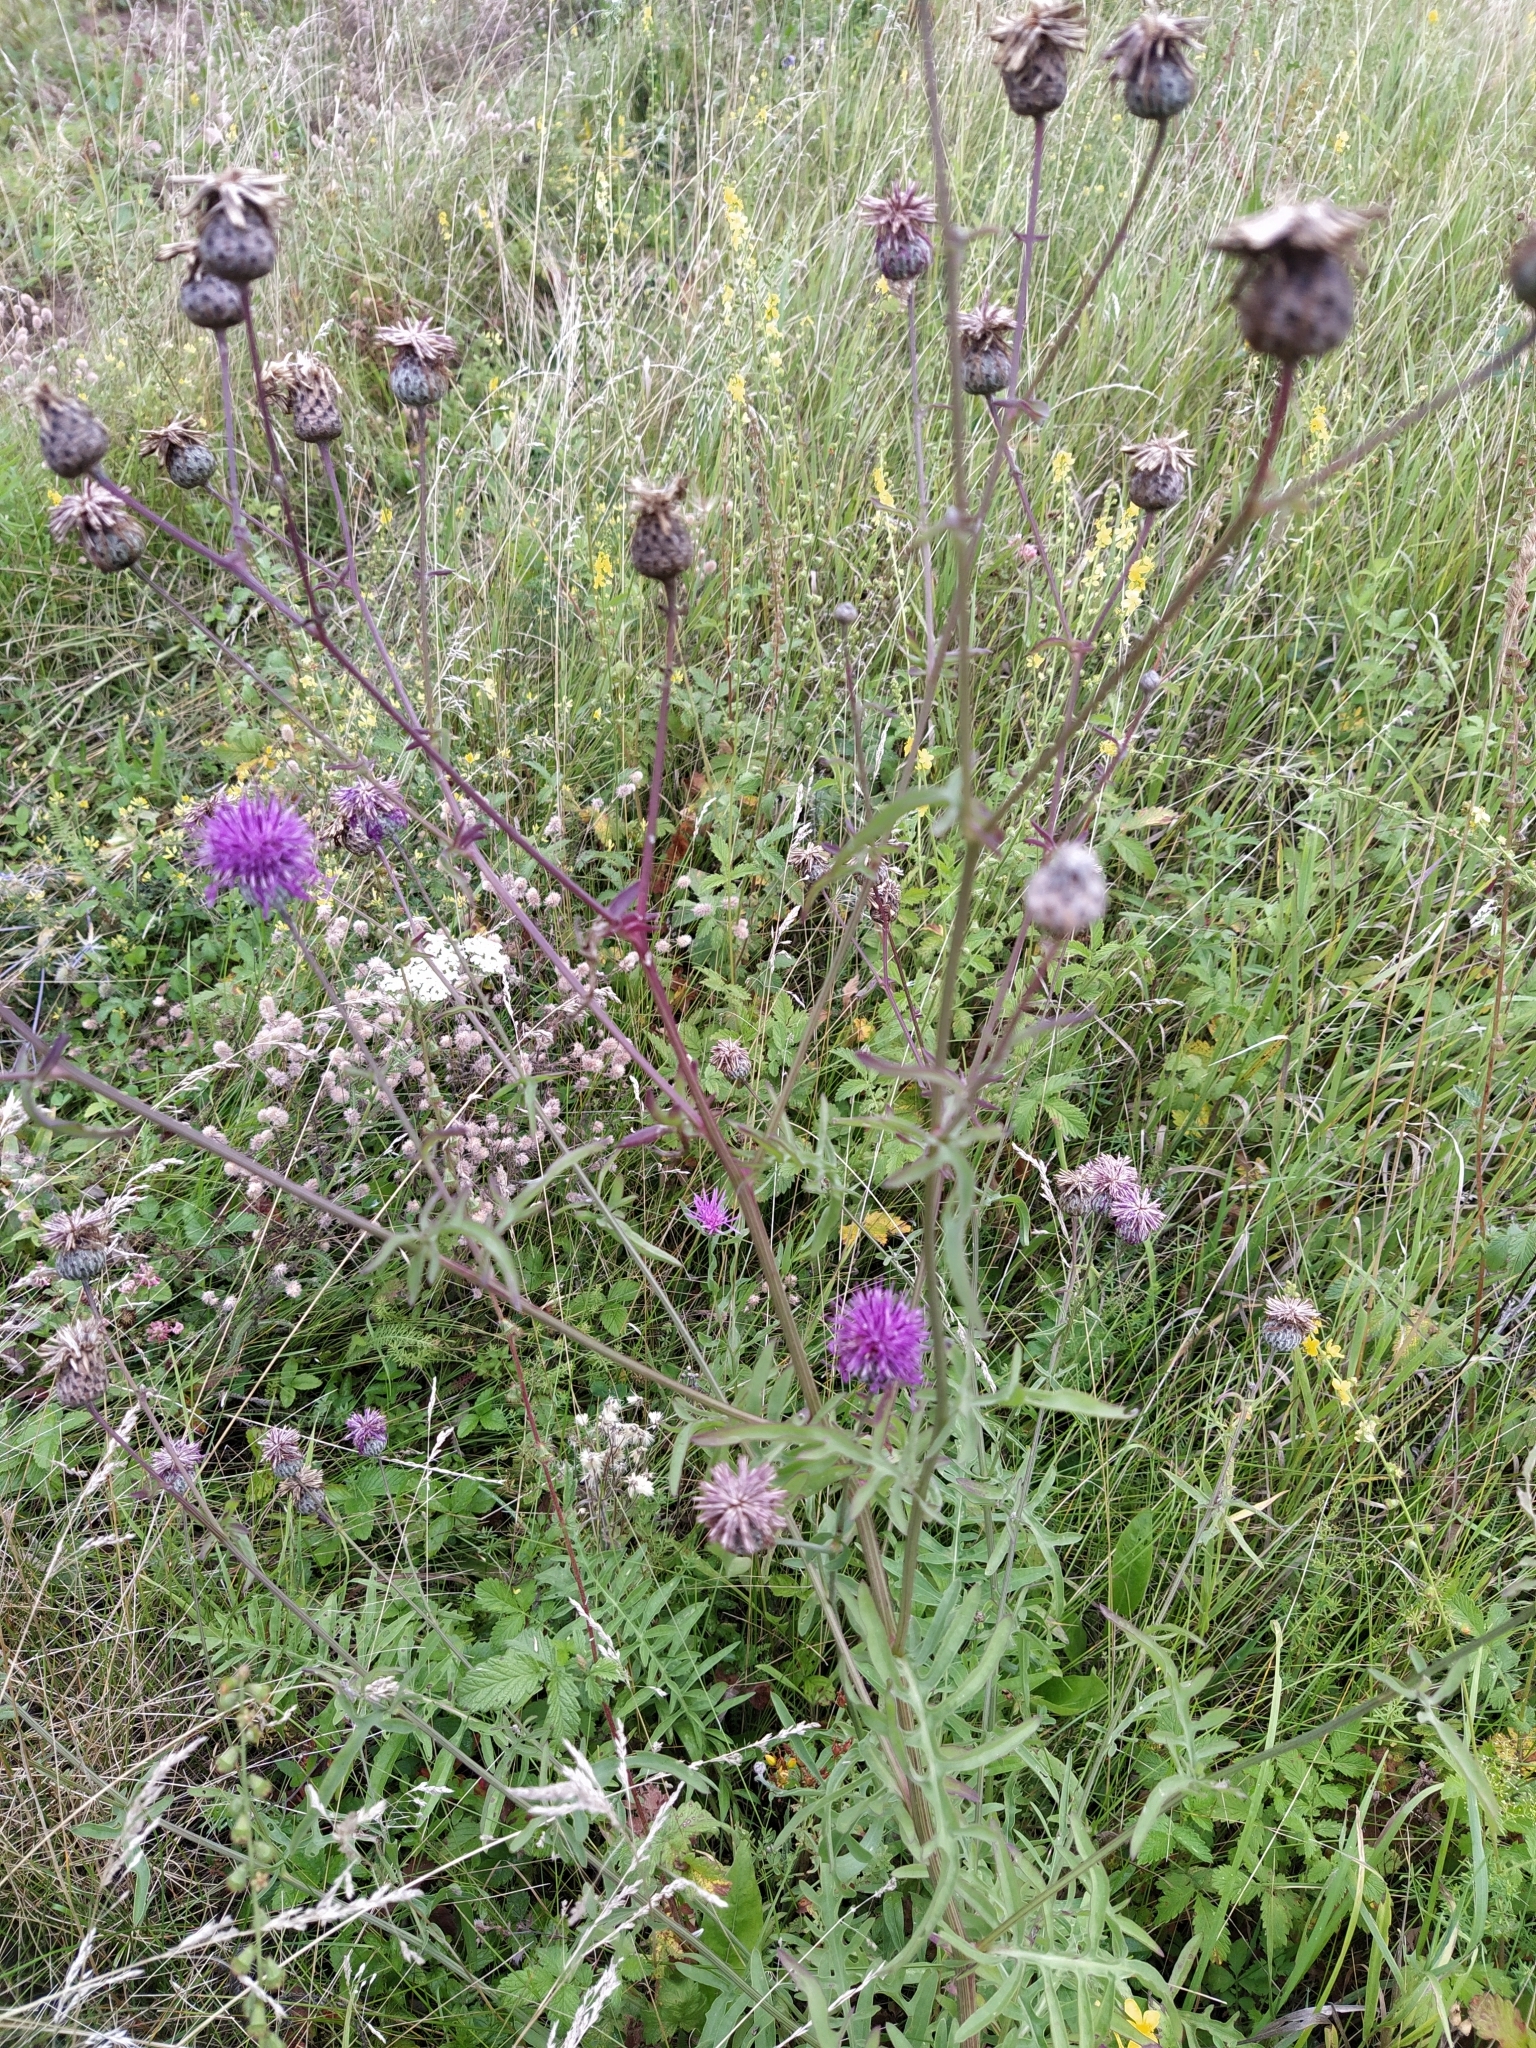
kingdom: Plantae
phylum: Tracheophyta
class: Magnoliopsida
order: Asterales
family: Asteraceae
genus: Centaurea
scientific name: Centaurea scabiosa
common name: Greater knapweed
